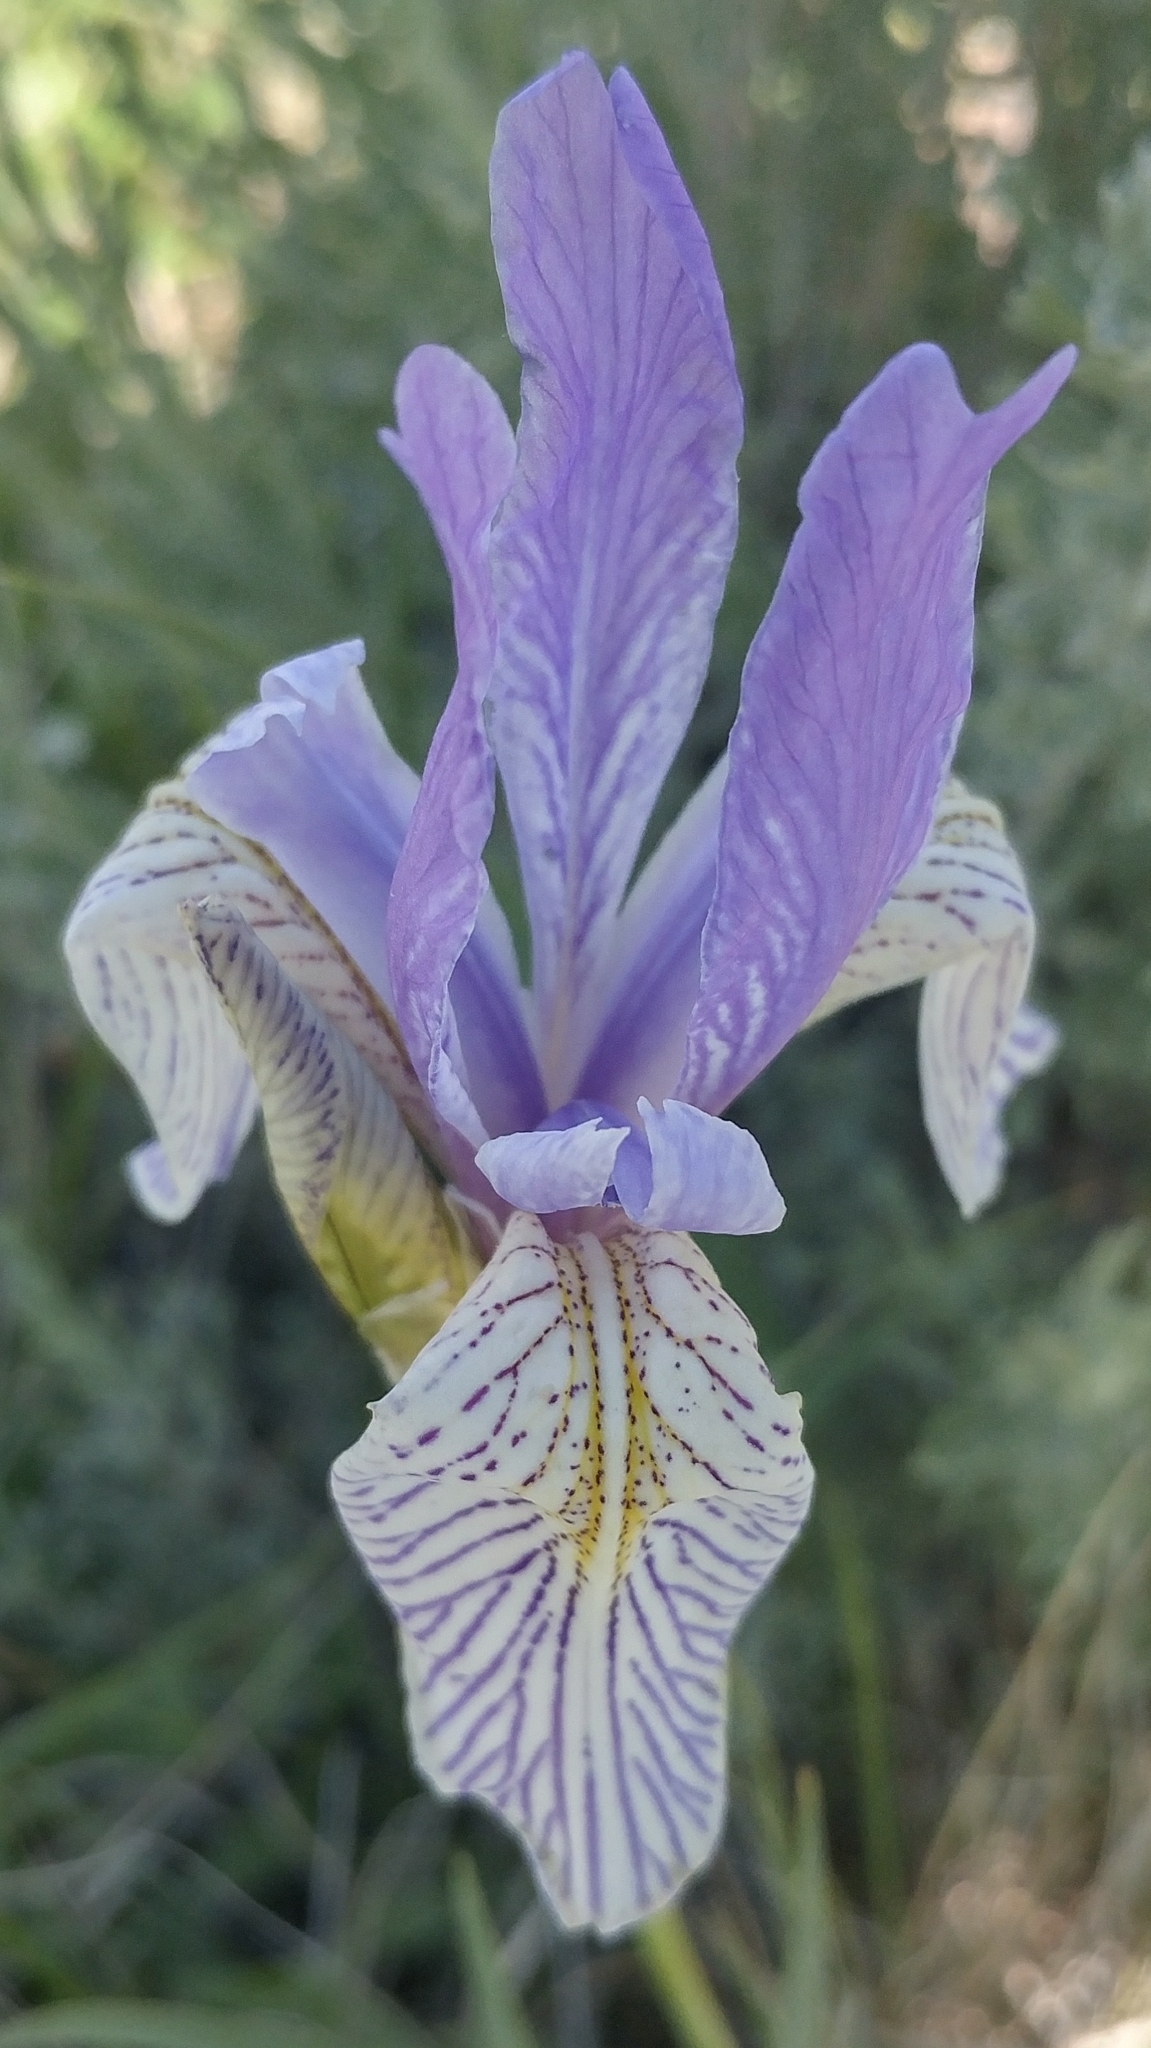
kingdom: Plantae
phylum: Tracheophyta
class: Liliopsida
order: Asparagales
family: Iridaceae
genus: Iris
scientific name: Iris missouriensis
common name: Rocky mountain iris
